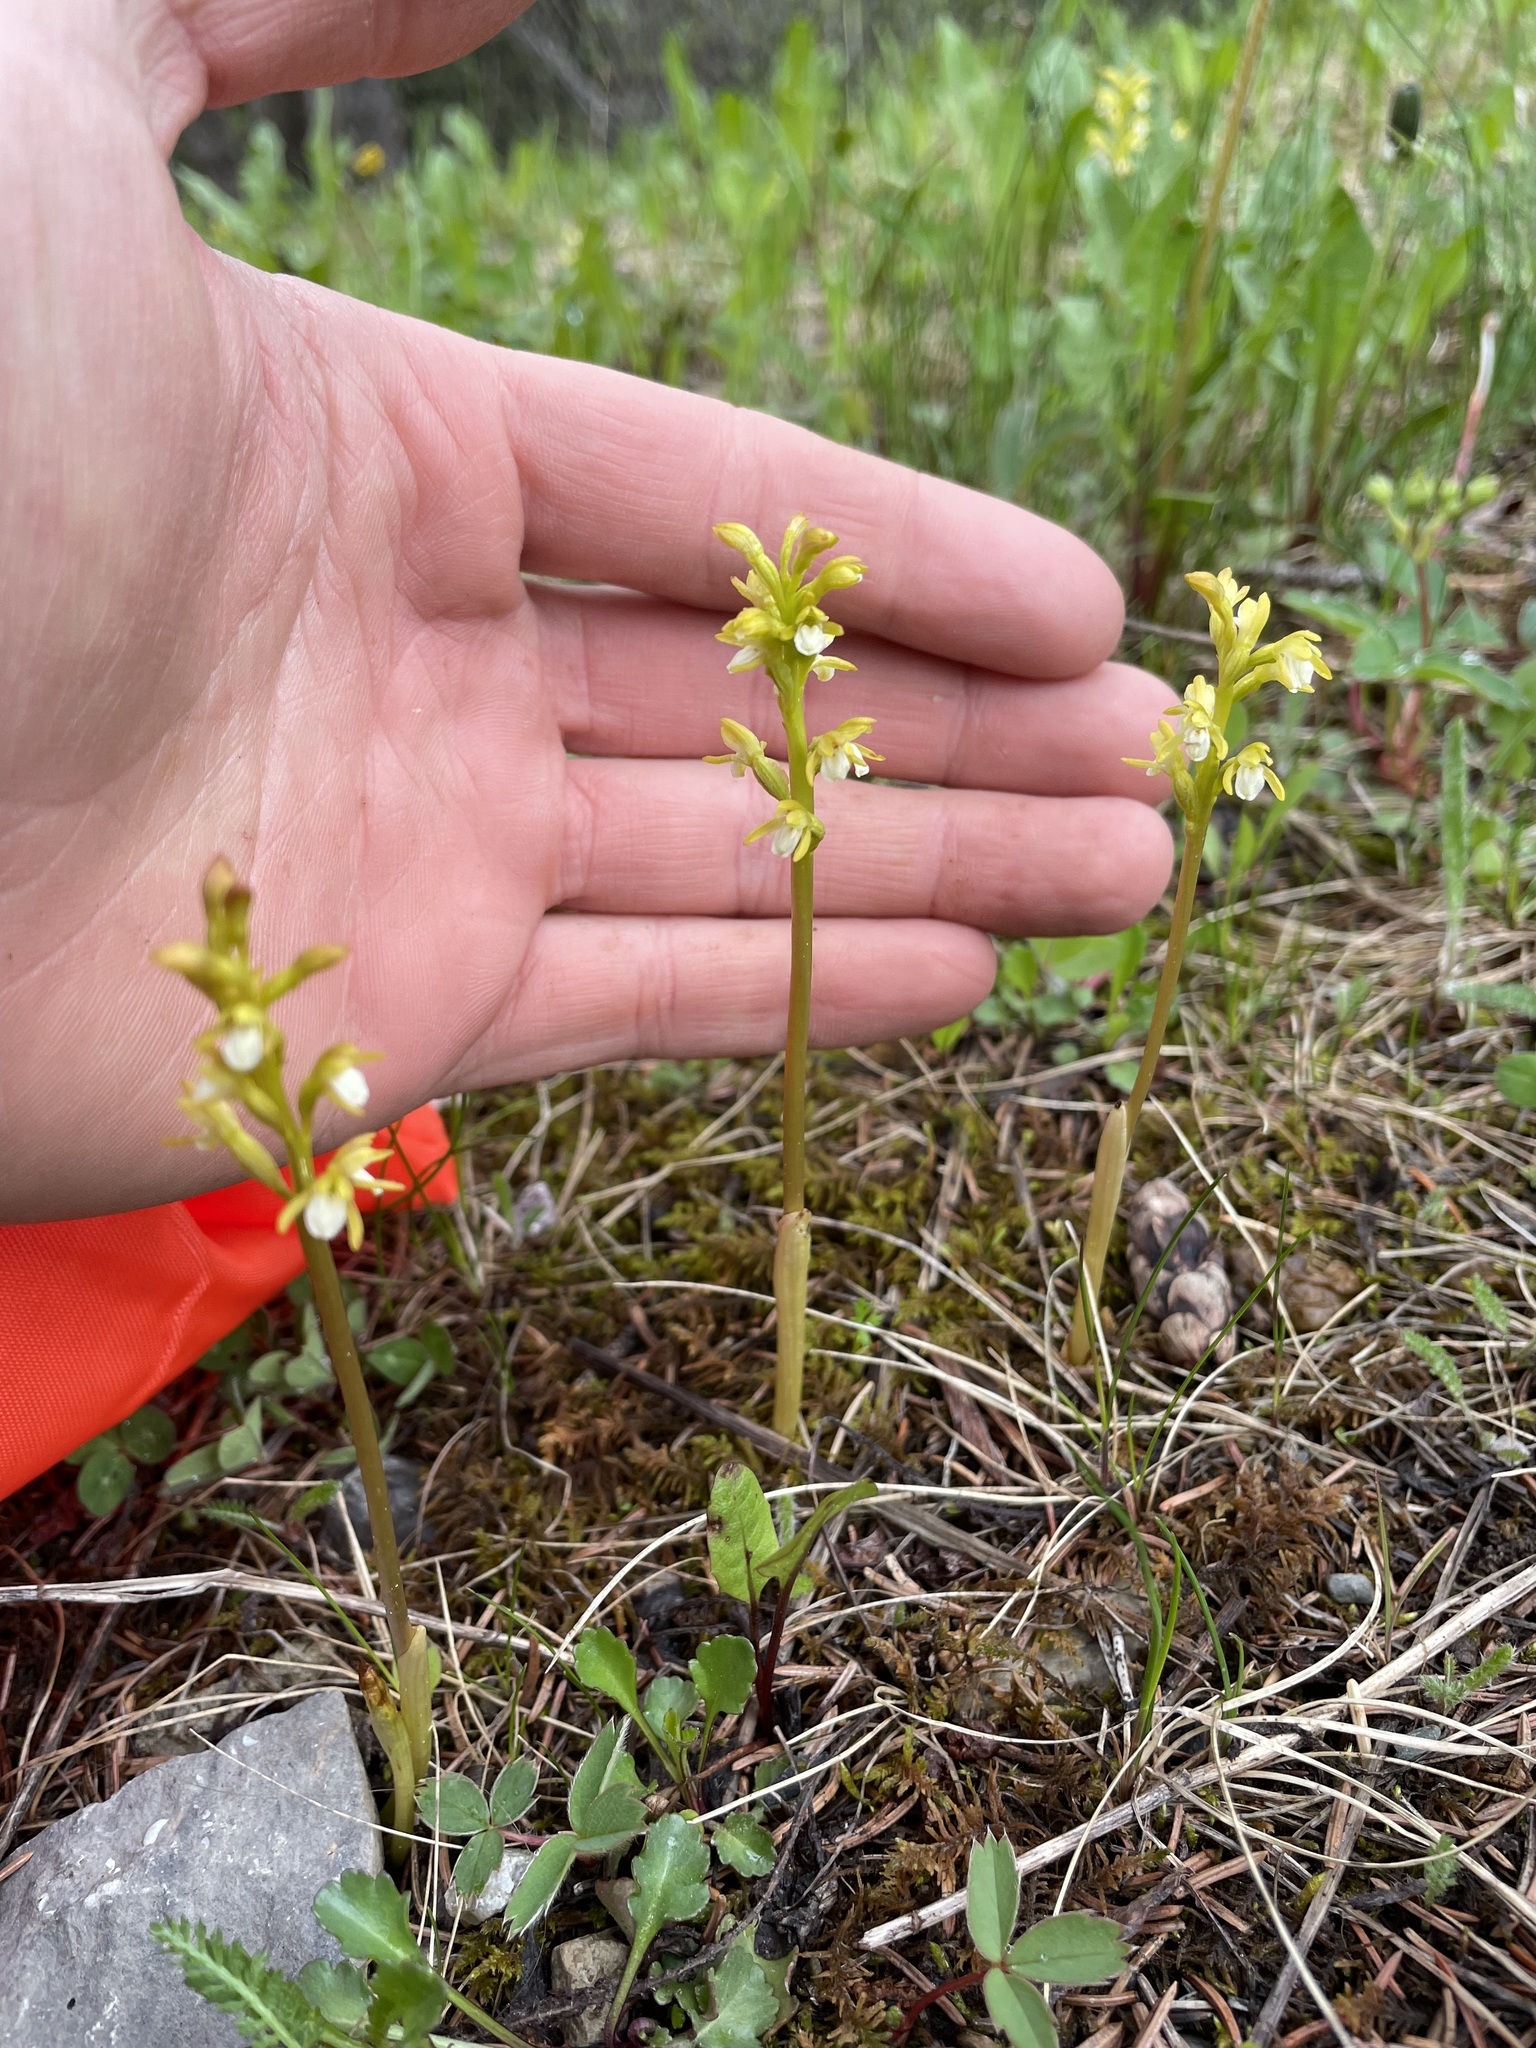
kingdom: Plantae
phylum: Tracheophyta
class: Liliopsida
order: Asparagales
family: Orchidaceae
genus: Corallorhiza
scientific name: Corallorhiza trifida
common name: Yellow coralroot
